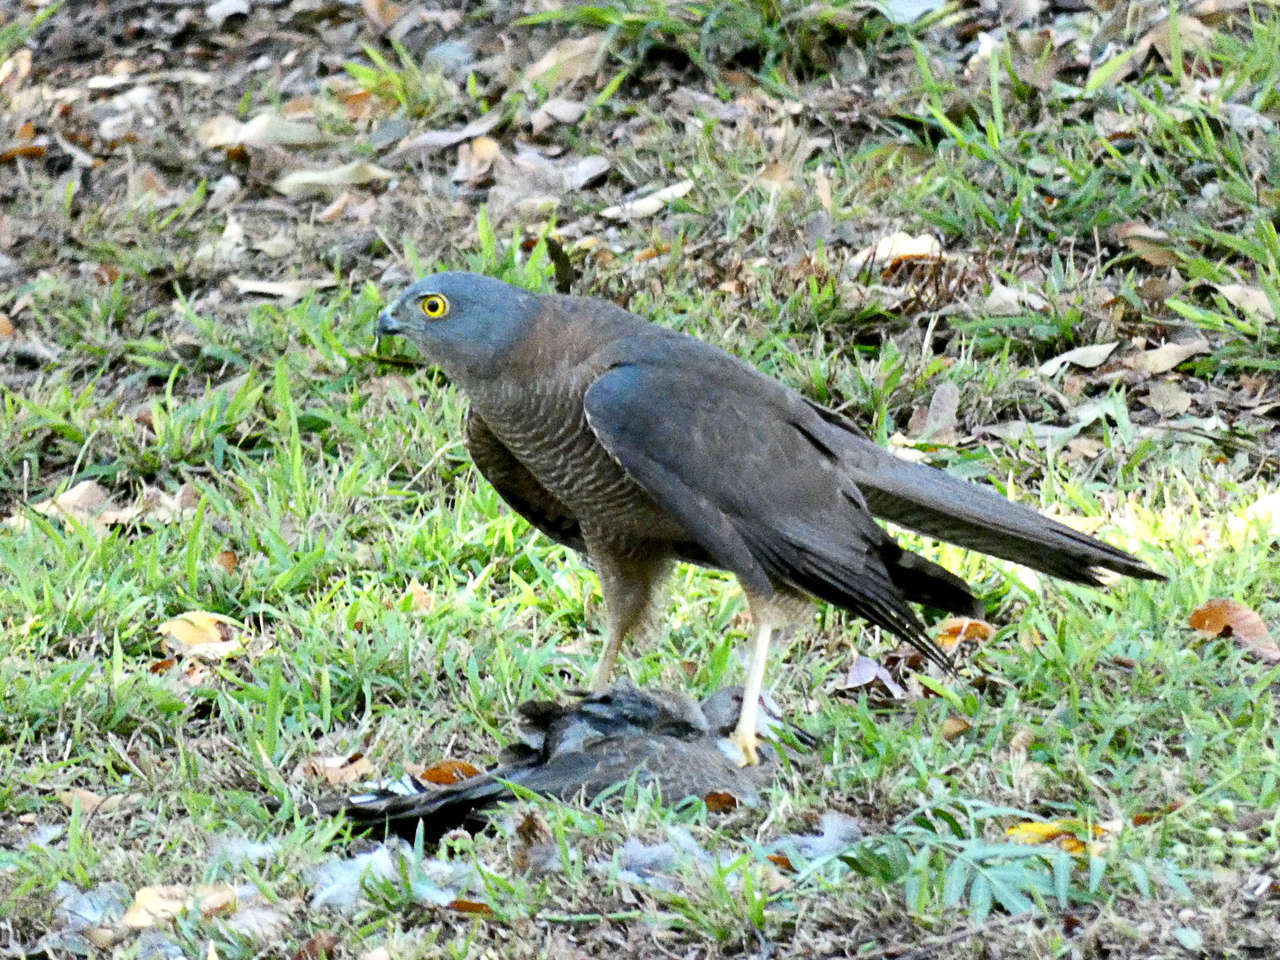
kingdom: Animalia
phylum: Chordata
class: Aves
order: Accipitriformes
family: Accipitridae
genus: Accipiter
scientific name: Accipiter fasciatus
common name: Brown goshawk
